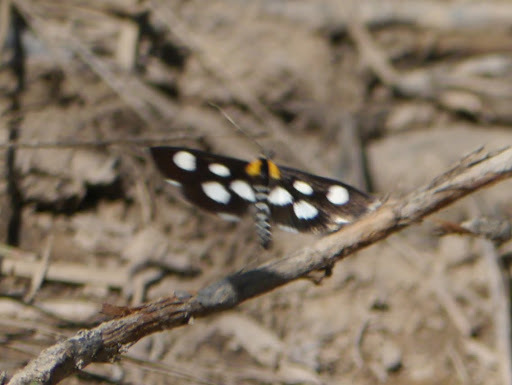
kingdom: Animalia
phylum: Arthropoda
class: Insecta
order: Lepidoptera
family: Crambidae
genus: Anania
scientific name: Anania funebris
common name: White-spotted sable moth
